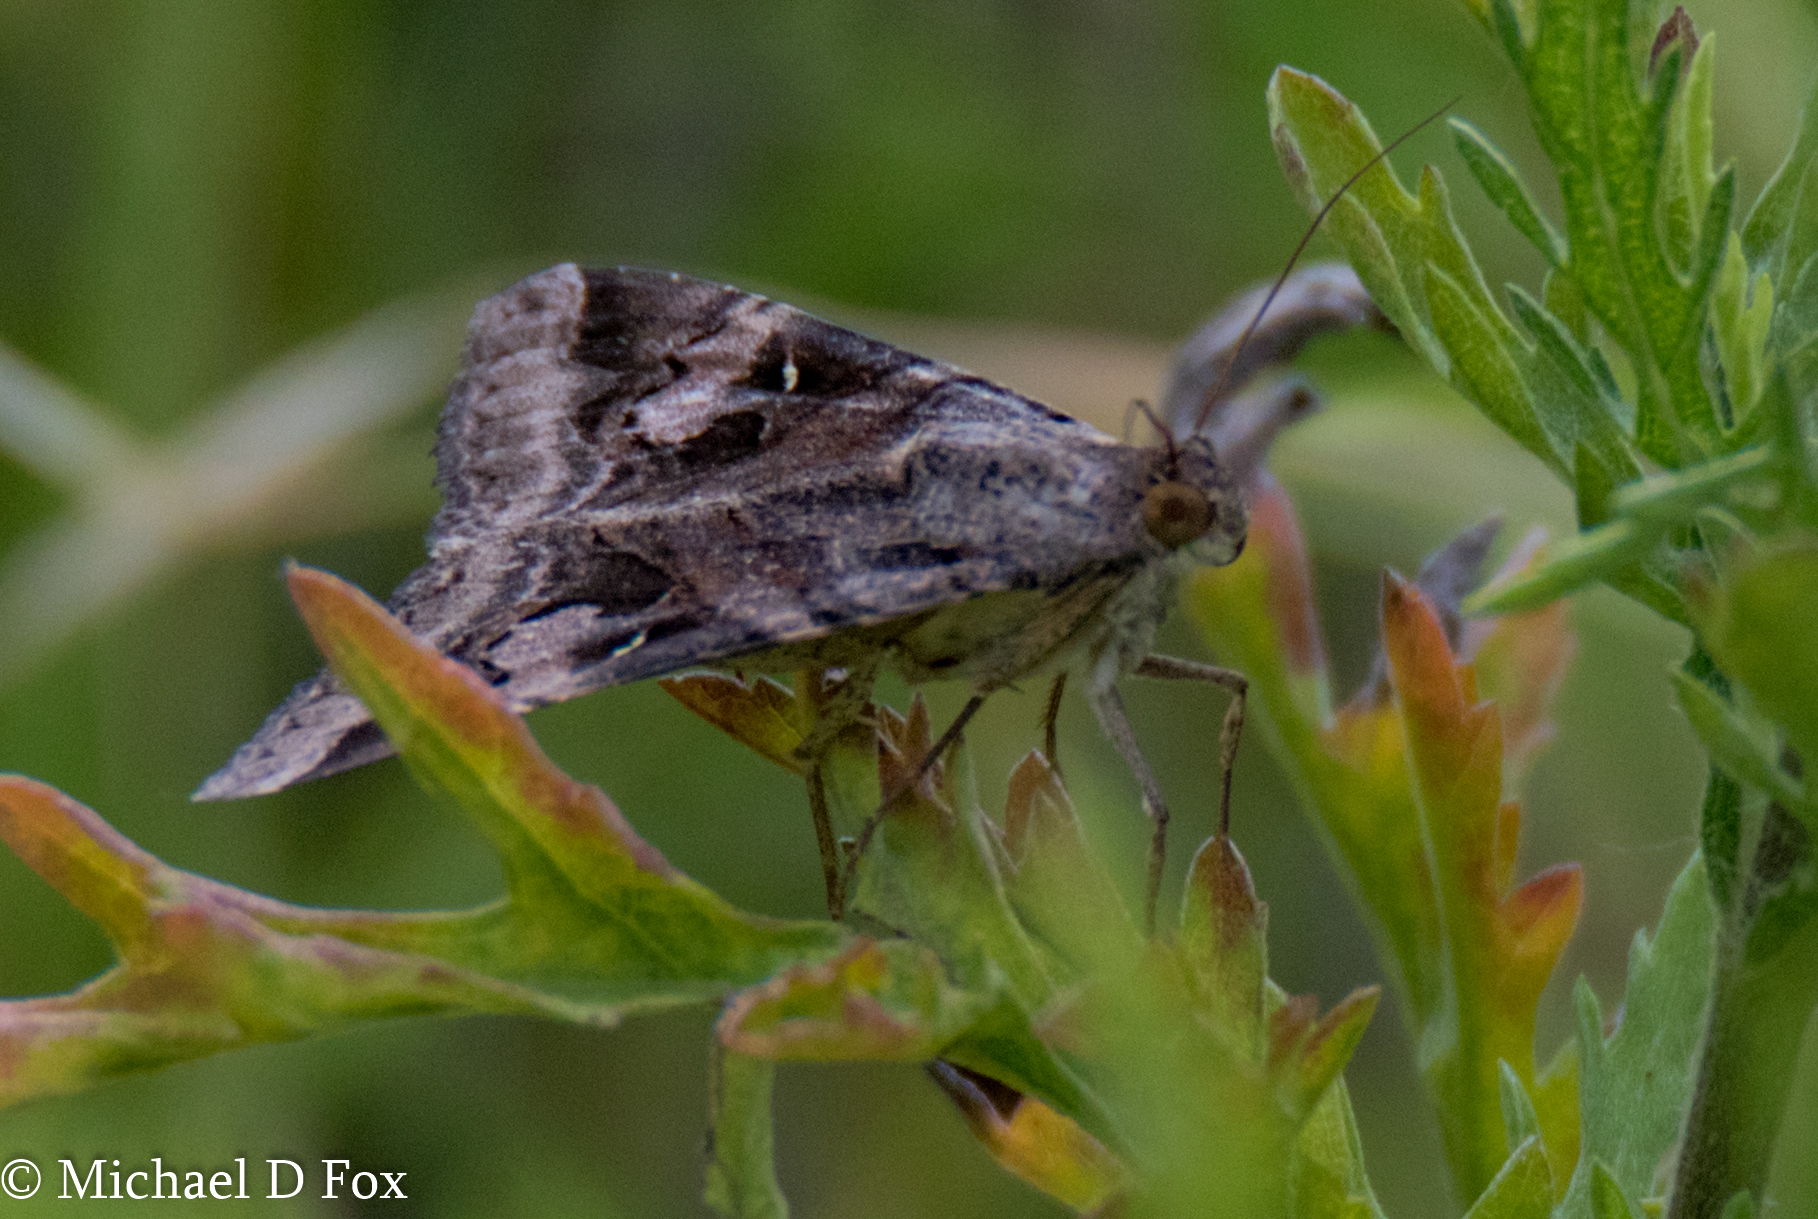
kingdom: Animalia
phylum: Arthropoda
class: Insecta
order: Lepidoptera
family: Erebidae
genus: Melipotis
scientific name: Melipotis indomita
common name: Moth
